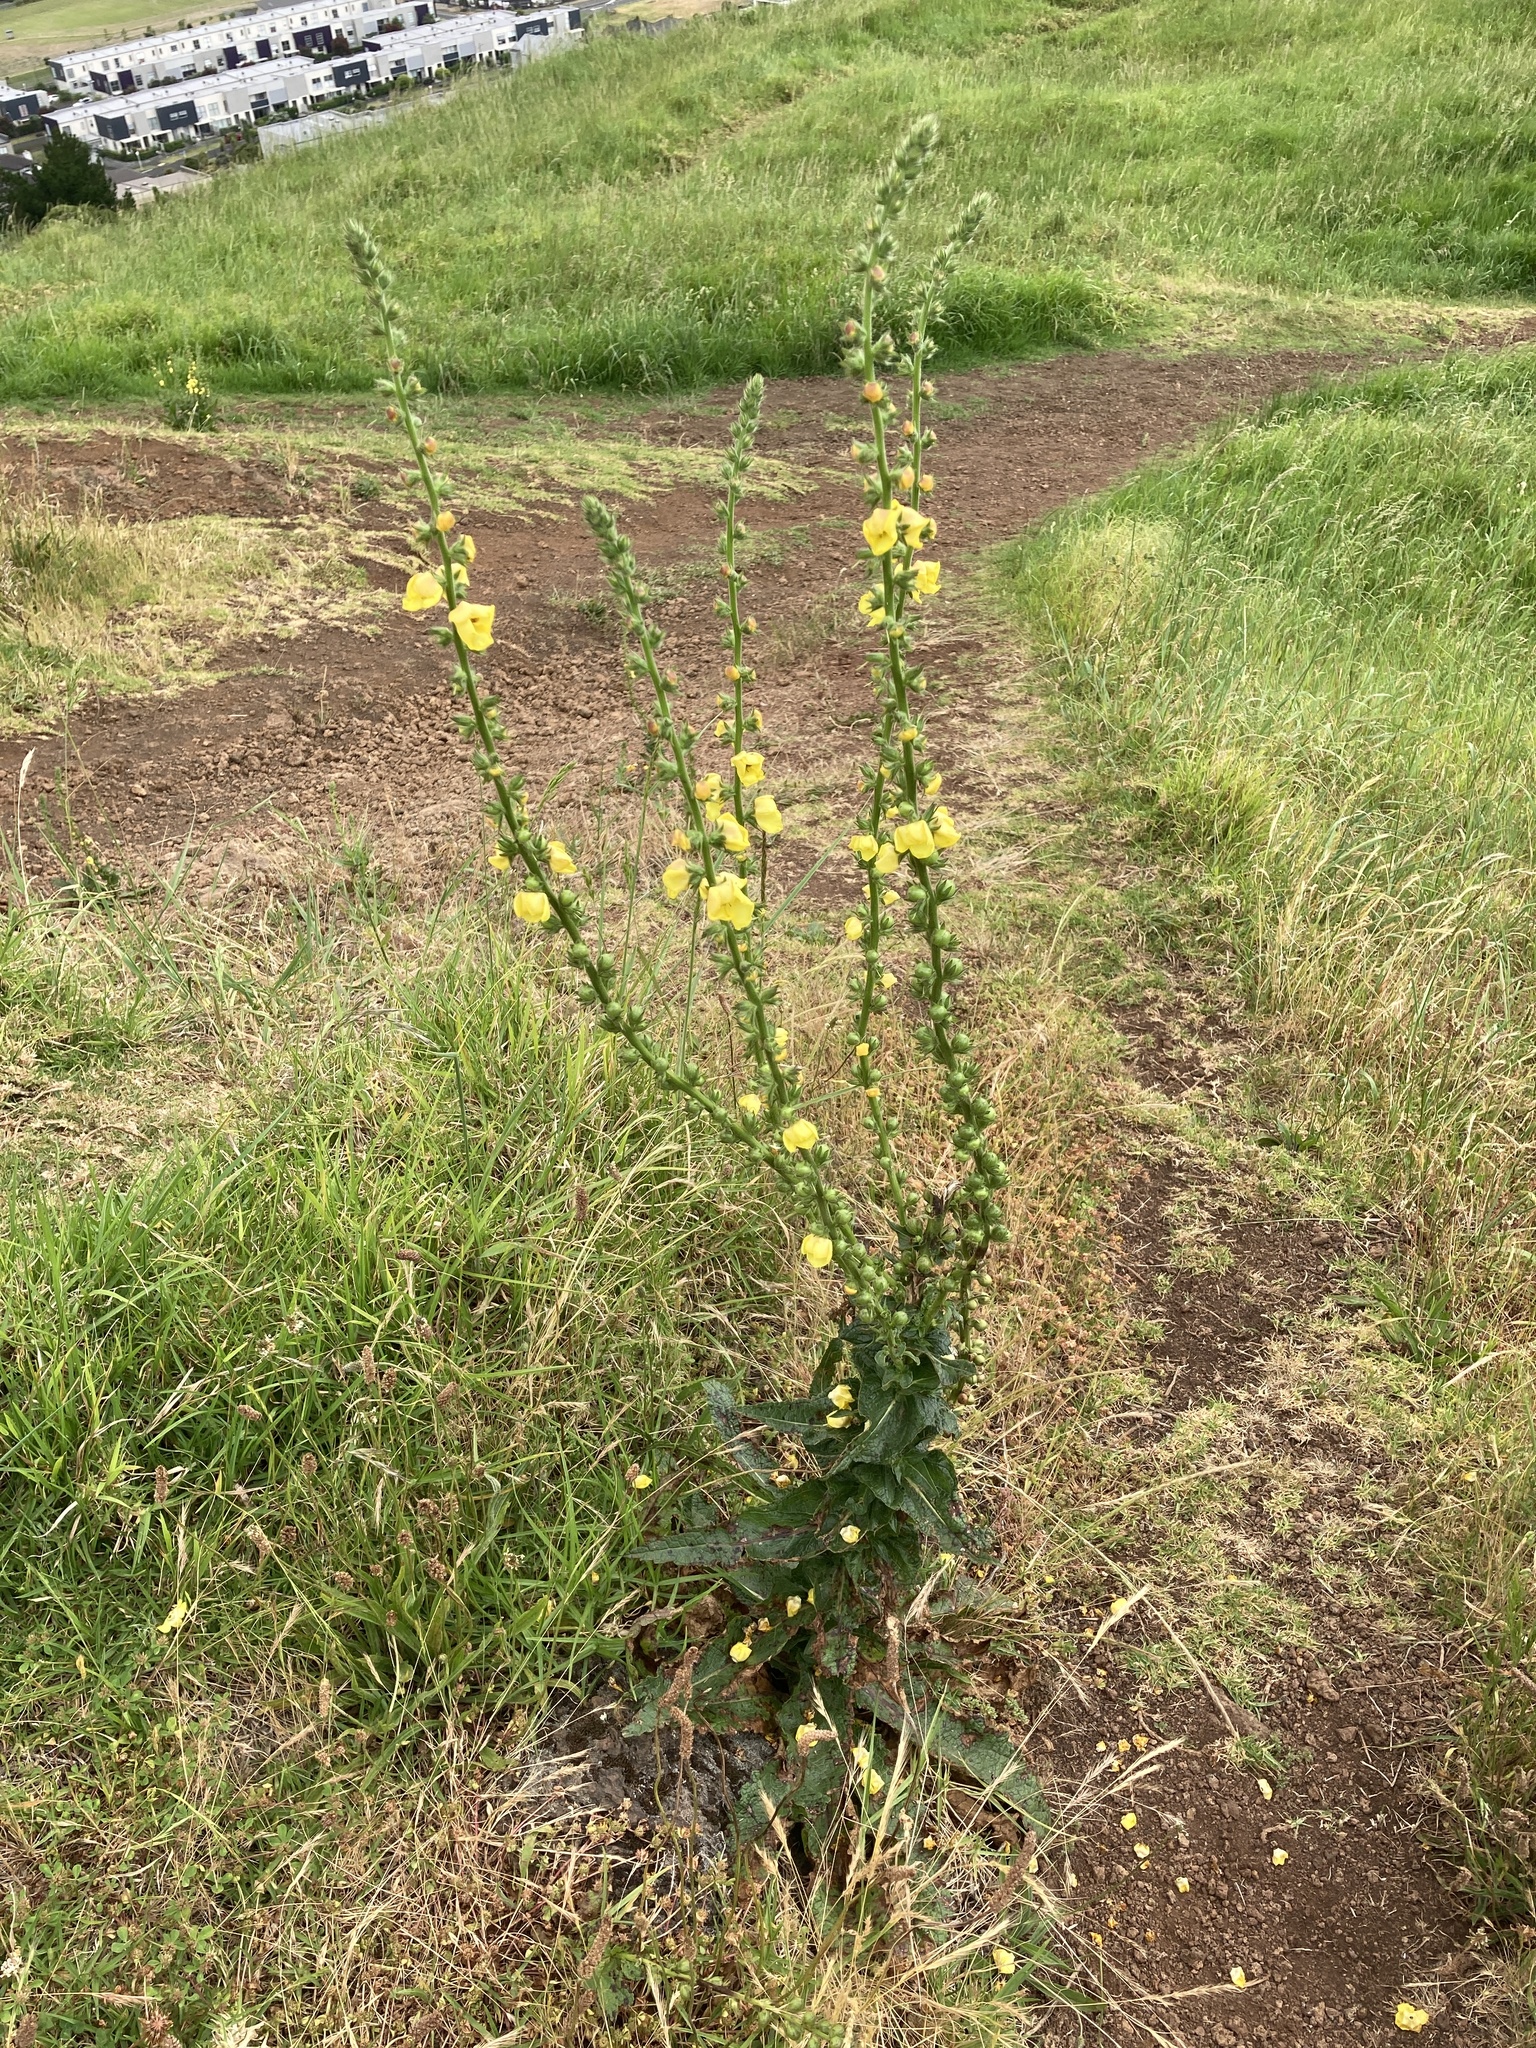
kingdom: Plantae
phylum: Tracheophyta
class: Magnoliopsida
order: Lamiales
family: Scrophulariaceae
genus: Verbascum
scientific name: Verbascum virgatum
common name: Twiggy mullein
